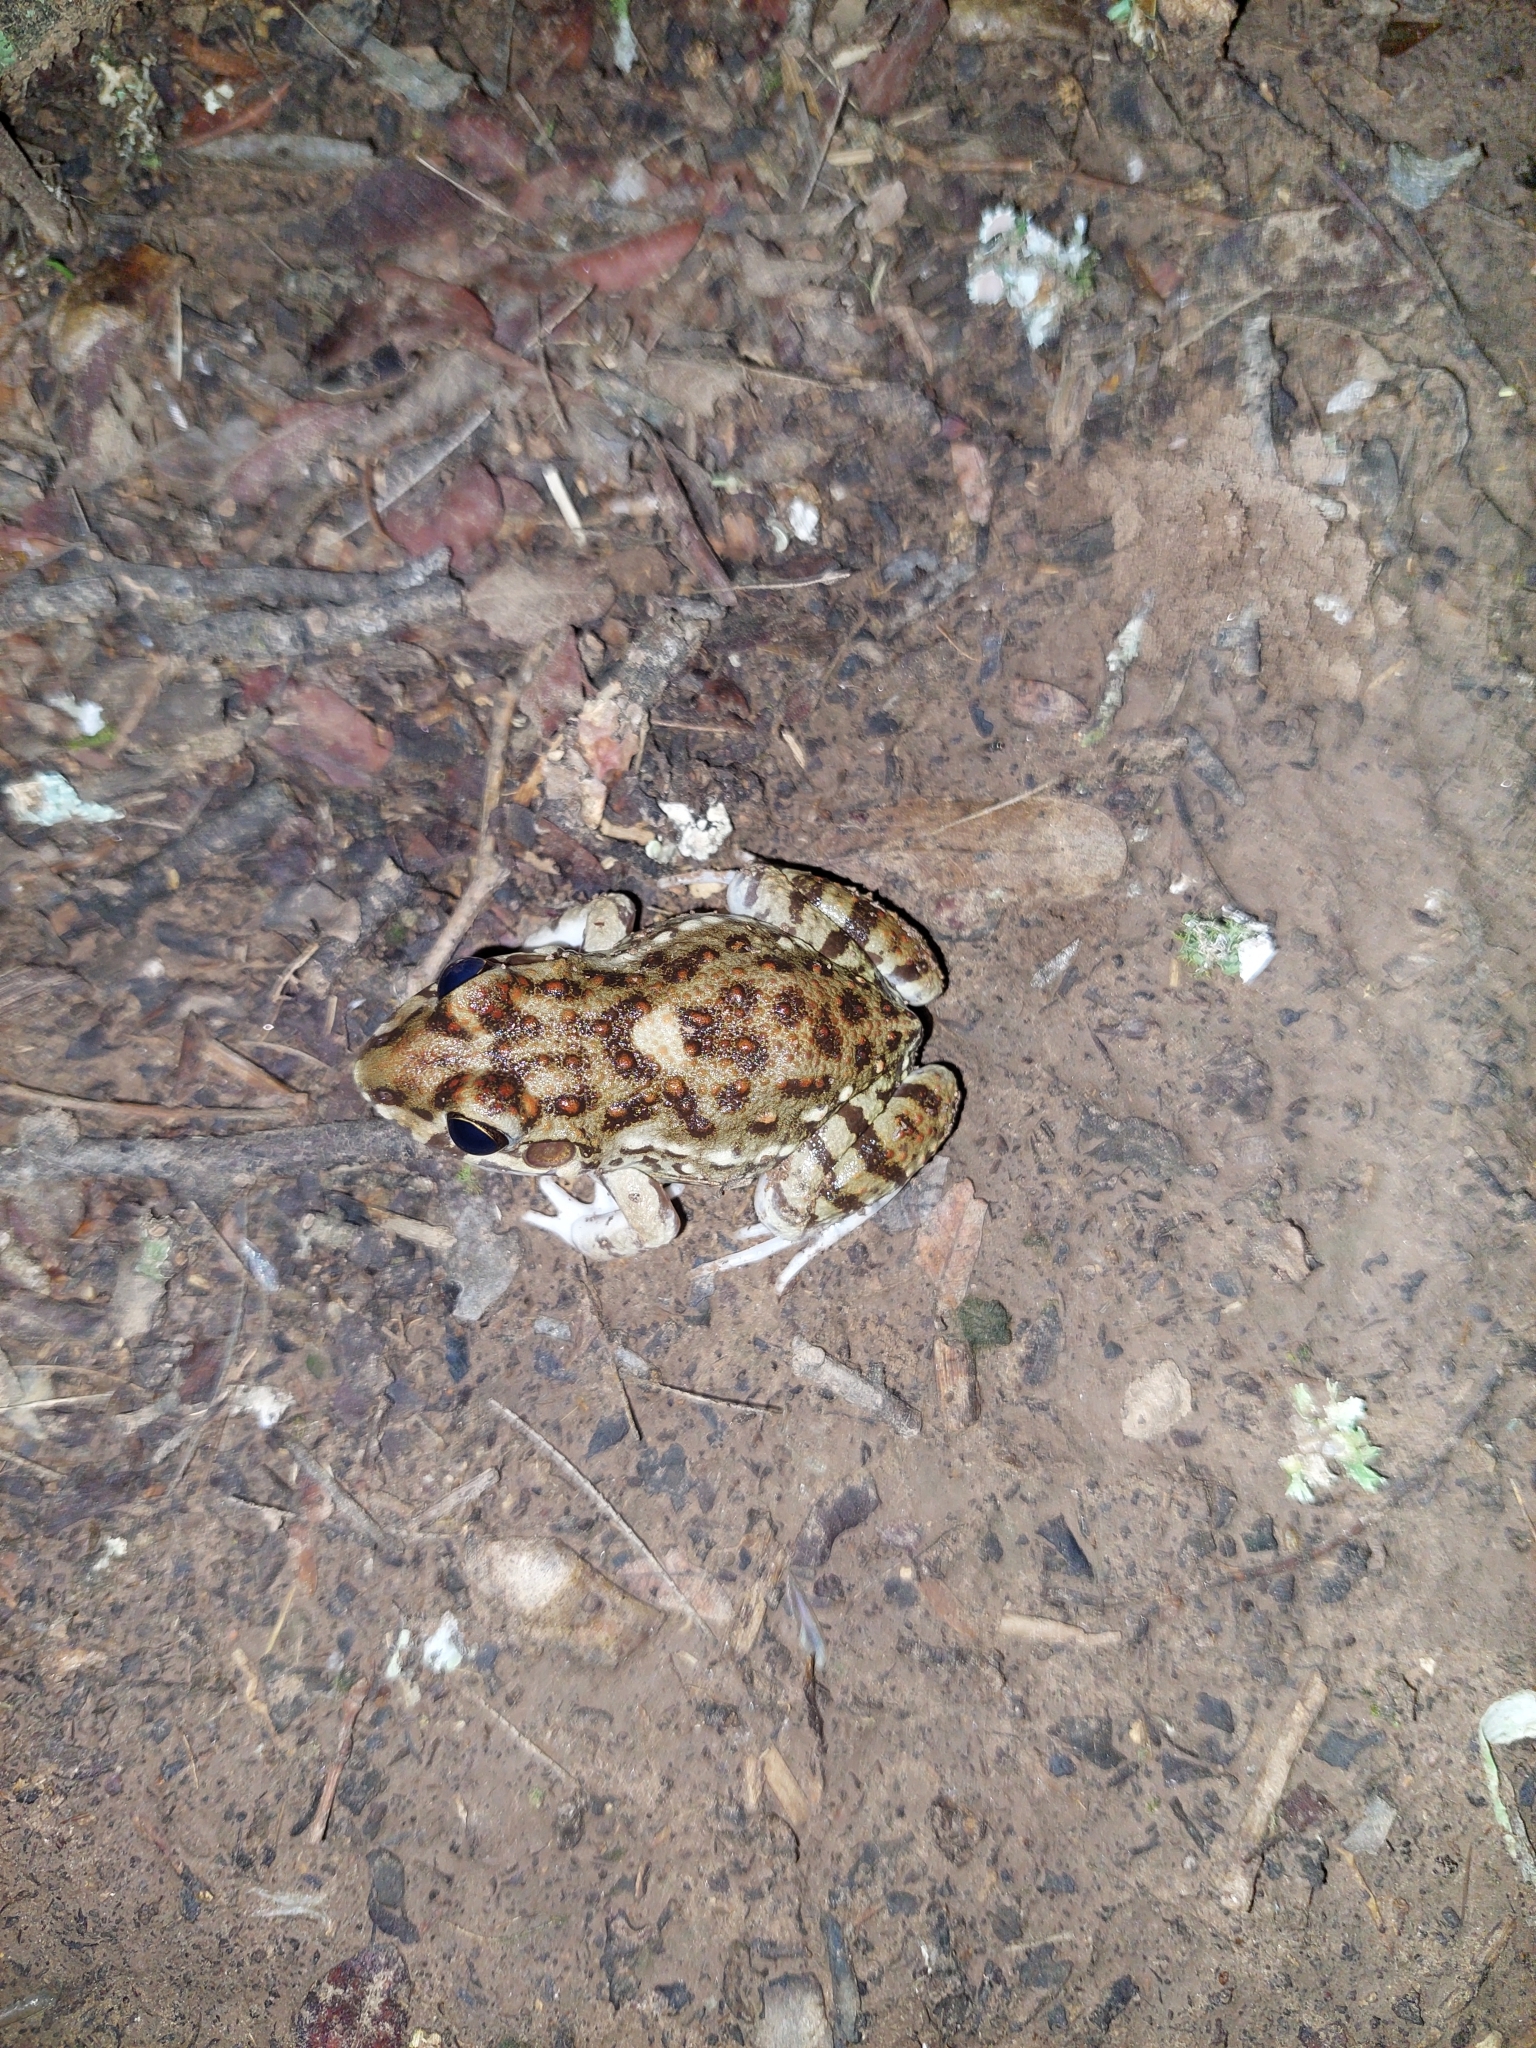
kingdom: Animalia
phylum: Chordata
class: Amphibia
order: Anura
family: Leptodactylidae
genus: Leptodactylus
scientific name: Leptodactylus bufonius
